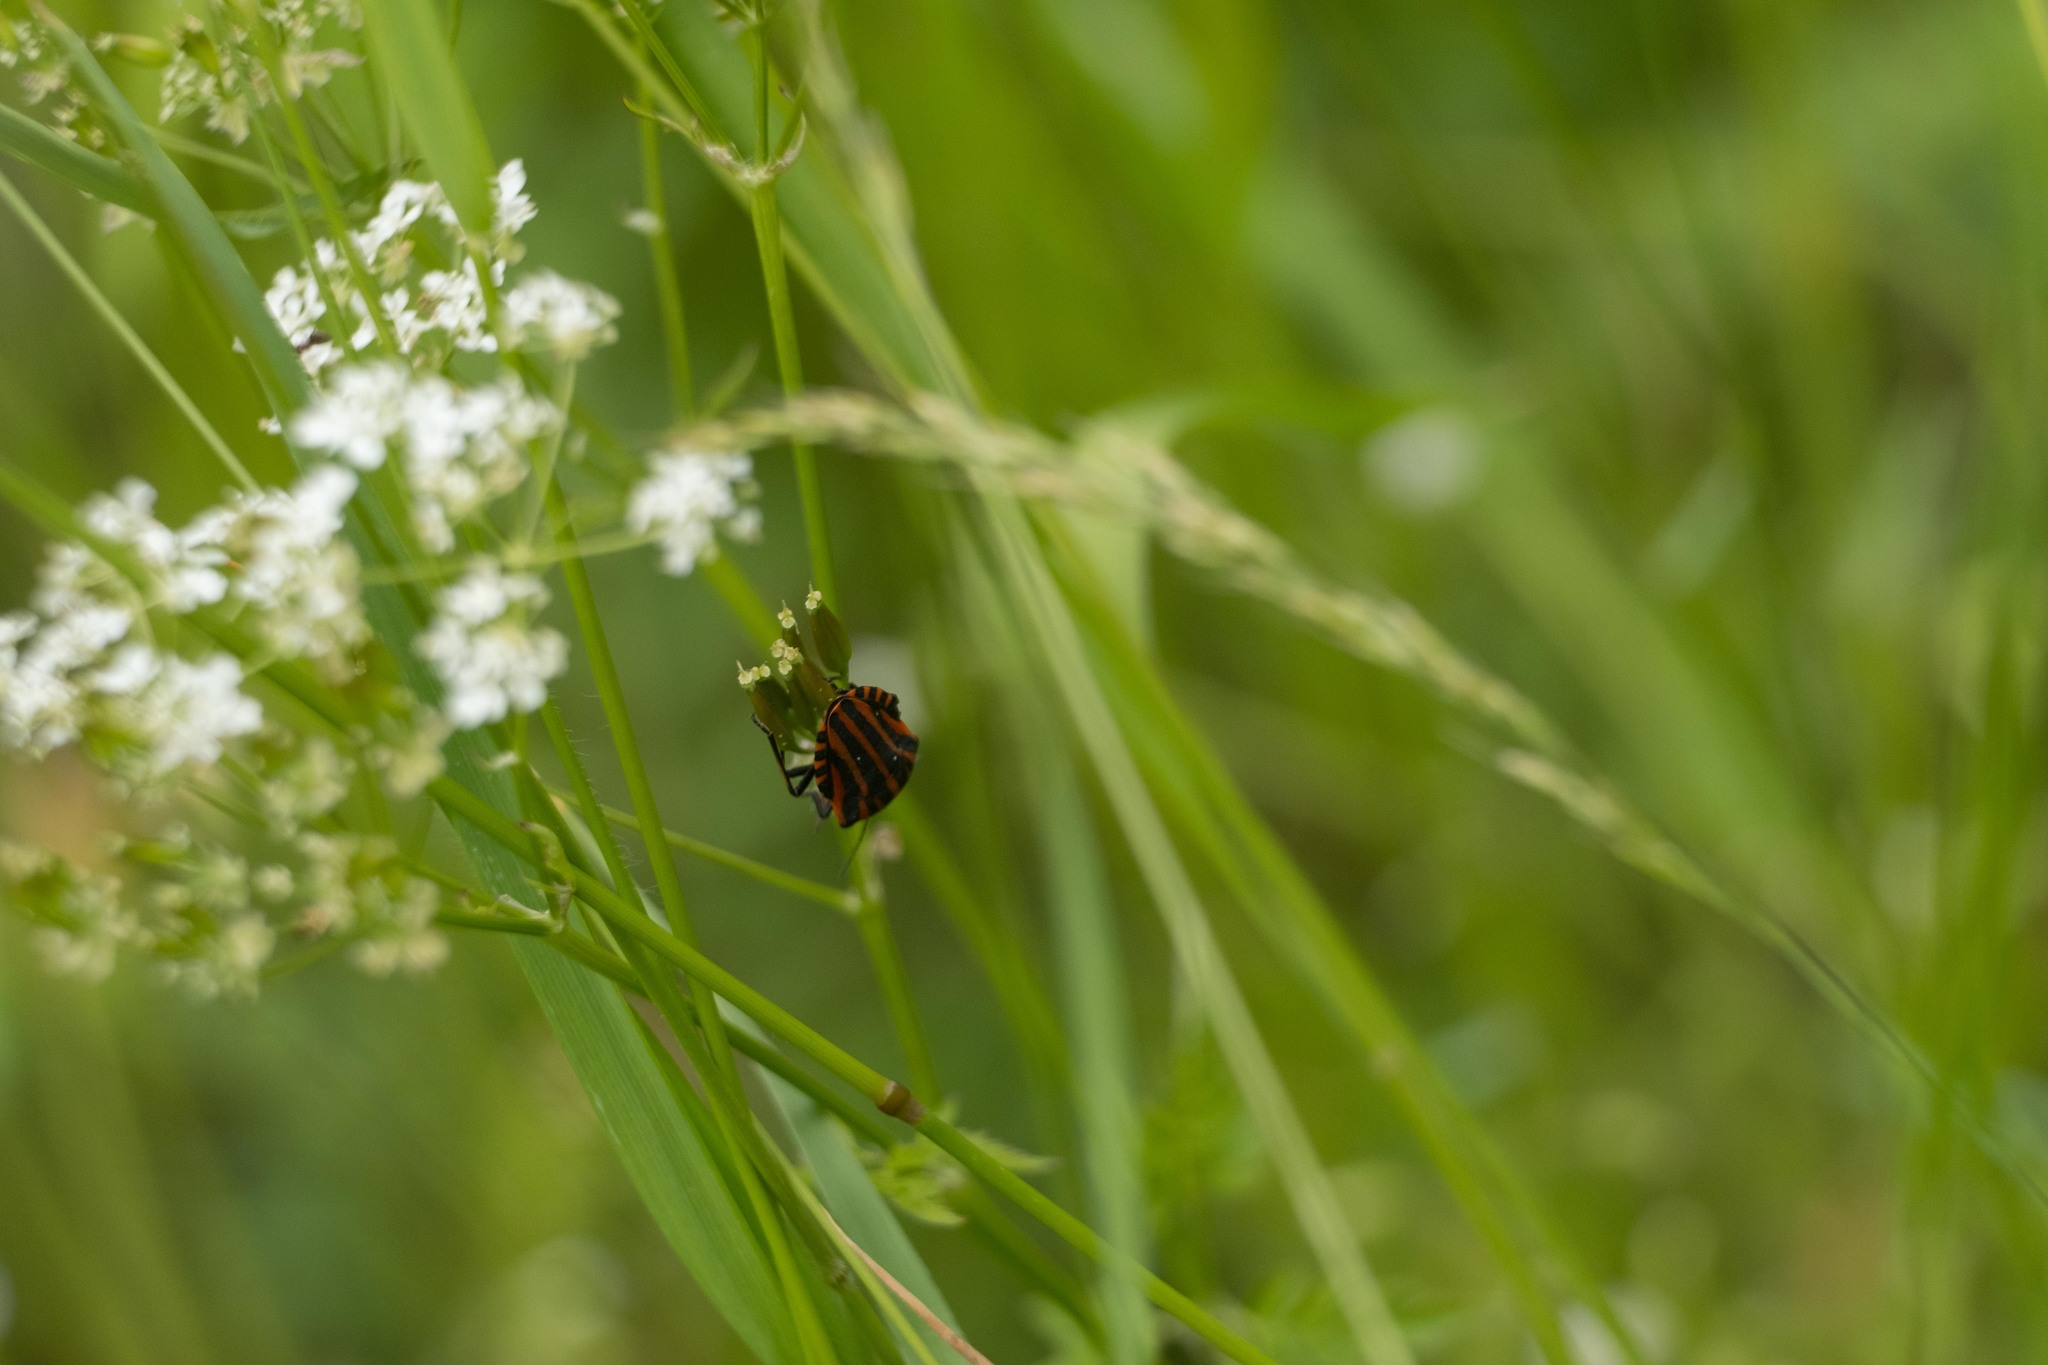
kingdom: Animalia
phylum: Arthropoda
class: Insecta
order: Hemiptera
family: Pentatomidae
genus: Graphosoma
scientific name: Graphosoma italicum
